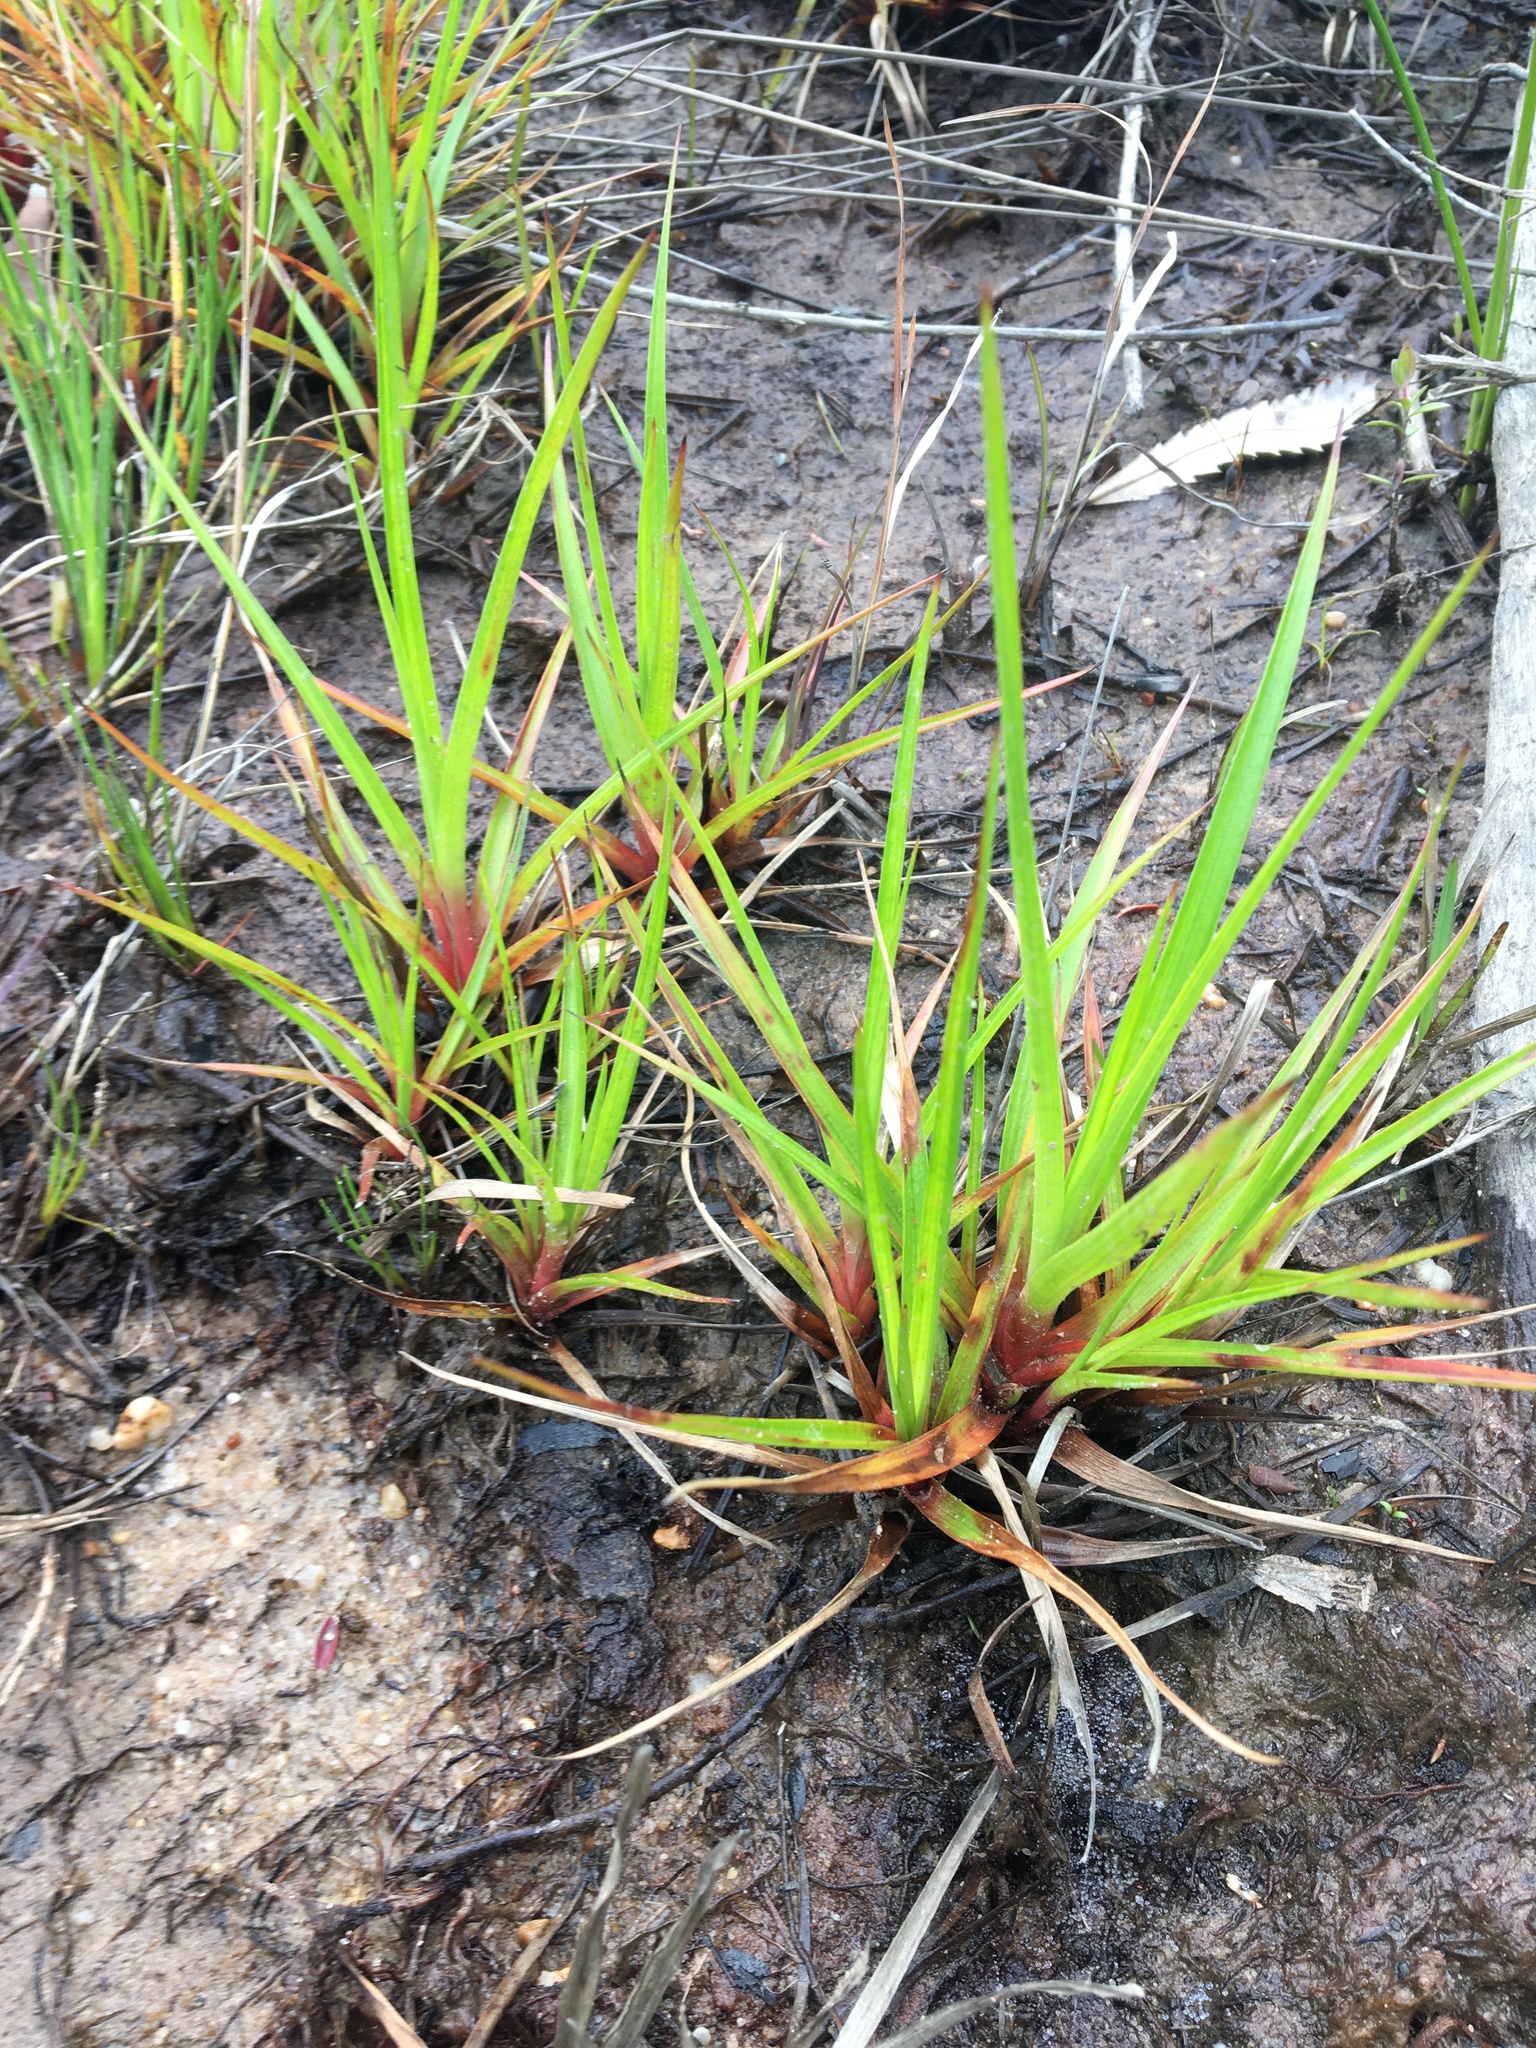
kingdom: Plantae
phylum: Tracheophyta
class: Liliopsida
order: Poales
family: Juncaceae
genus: Juncus
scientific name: Juncus planifolius
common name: Broadleaf rush
